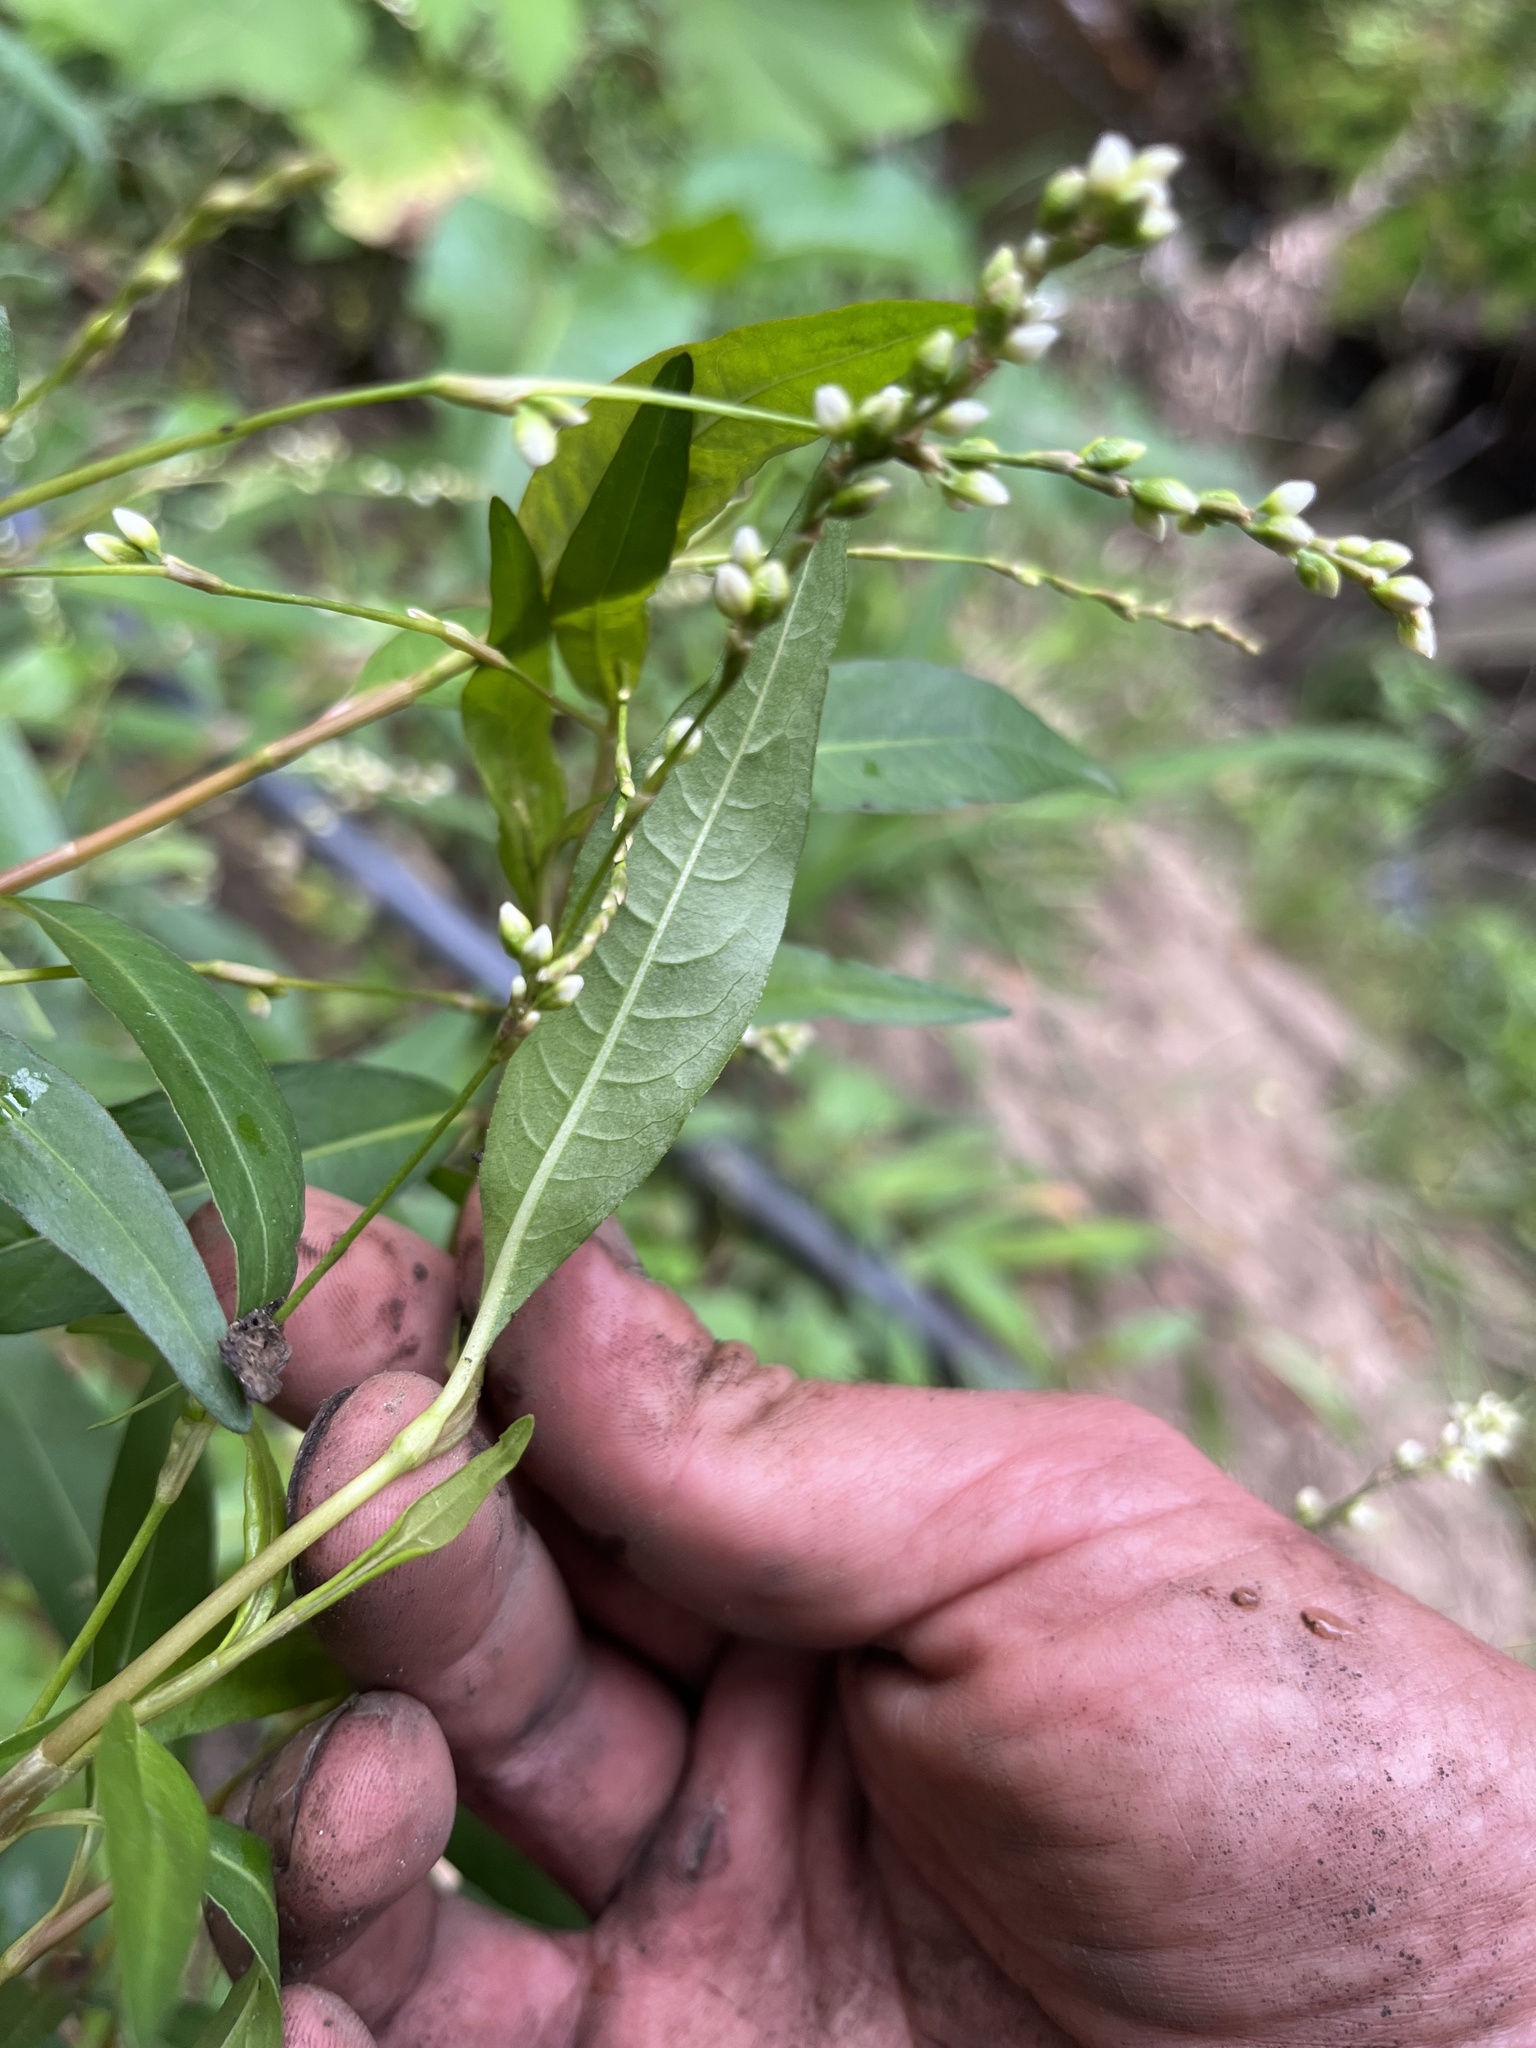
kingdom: Plantae
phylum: Tracheophyta
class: Magnoliopsida
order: Caryophyllales
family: Polygonaceae
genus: Persicaria
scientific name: Persicaria punctata
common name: Dotted smartweed
